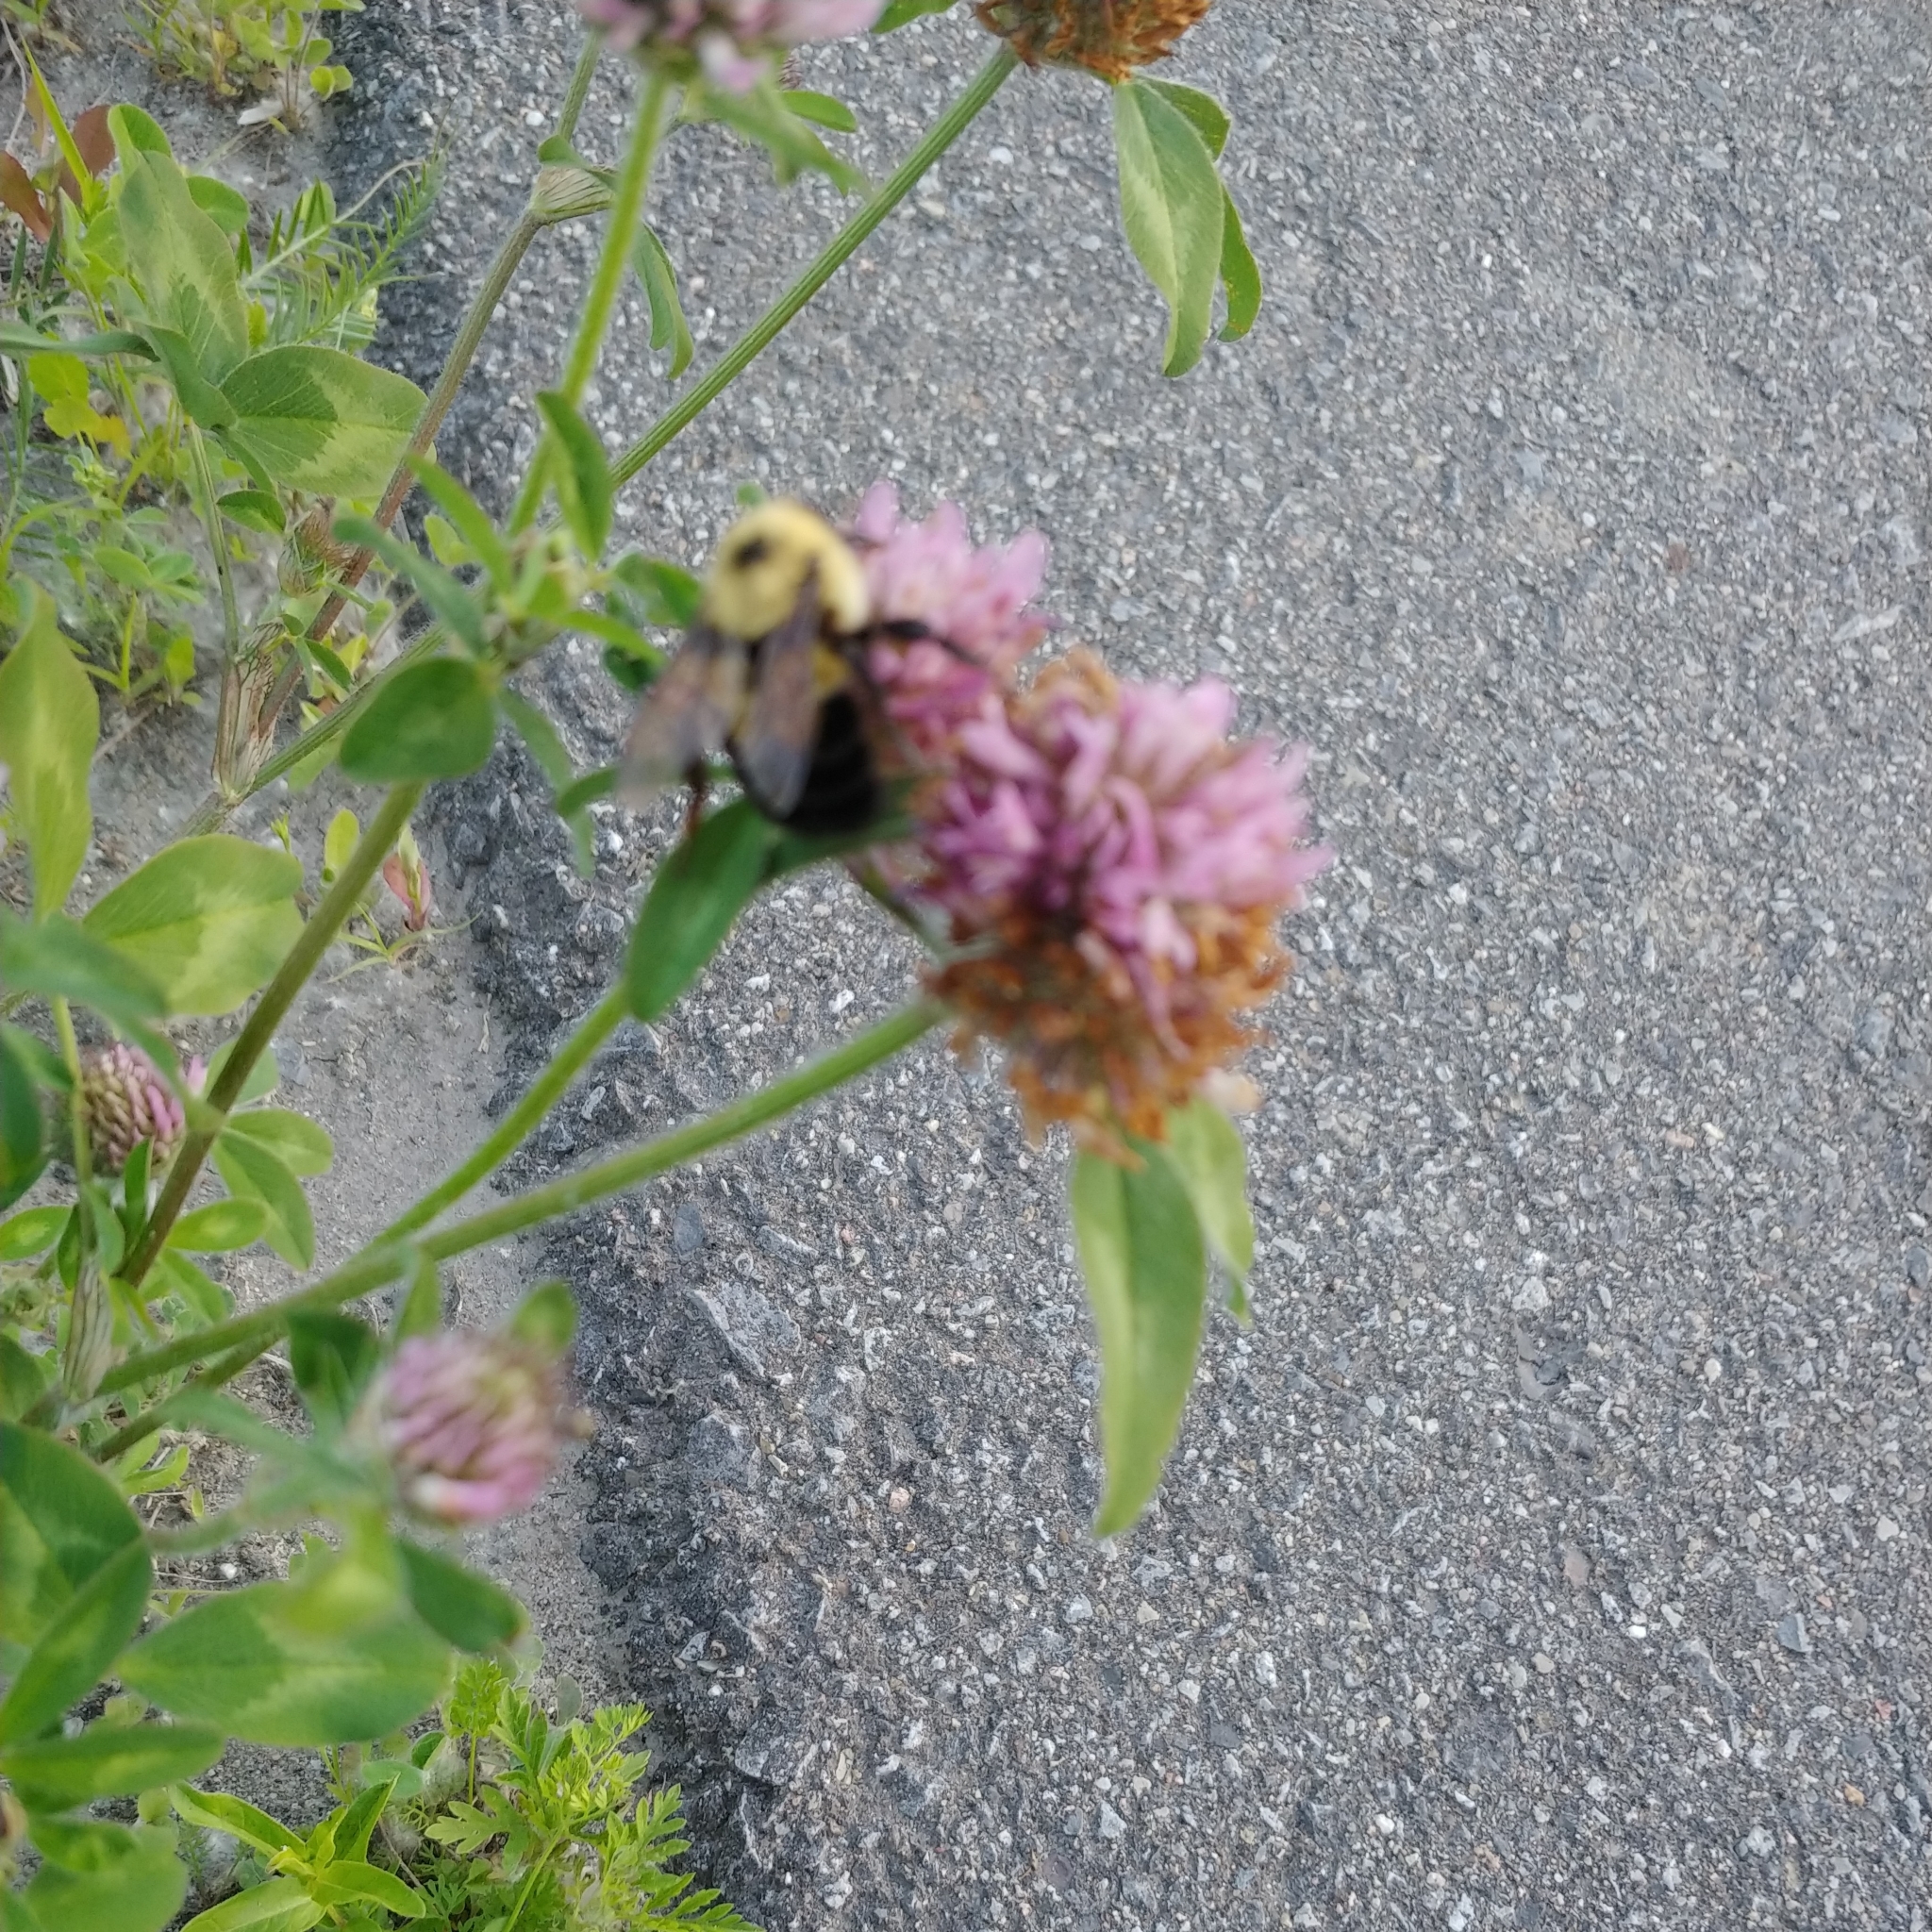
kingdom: Animalia
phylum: Arthropoda
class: Insecta
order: Hymenoptera
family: Apidae
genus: Bombus
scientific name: Bombus bimaculatus
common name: Two-spotted bumble bee
